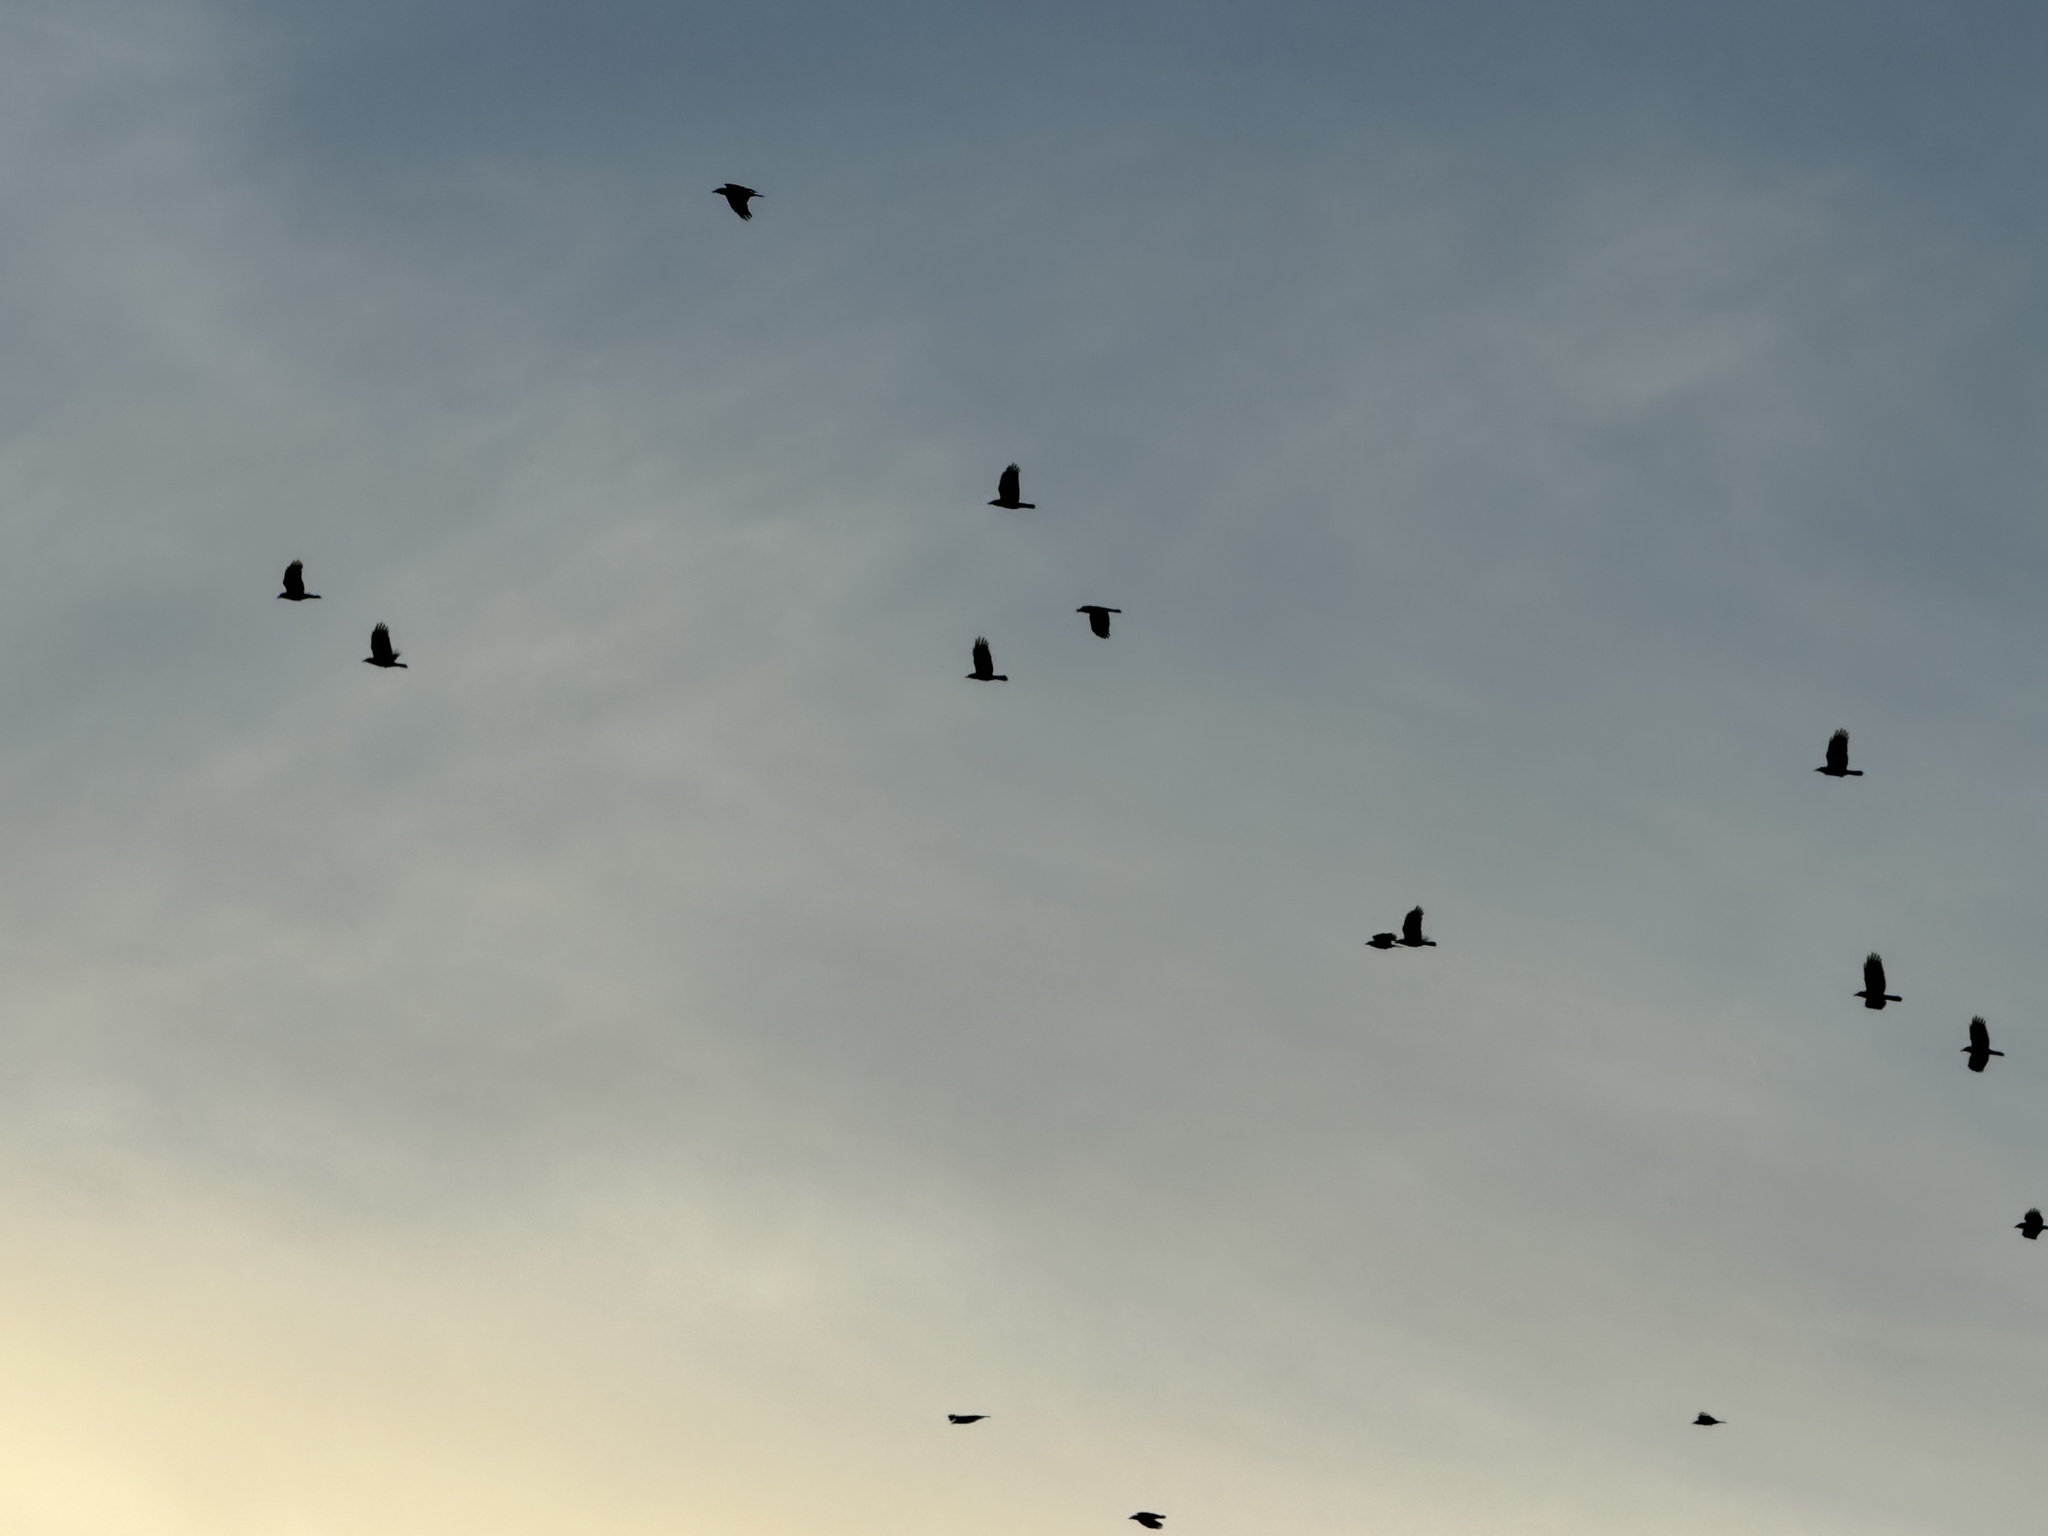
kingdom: Animalia
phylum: Chordata
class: Aves
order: Passeriformes
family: Corvidae
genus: Corvus
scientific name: Corvus brachyrhynchos
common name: American crow
